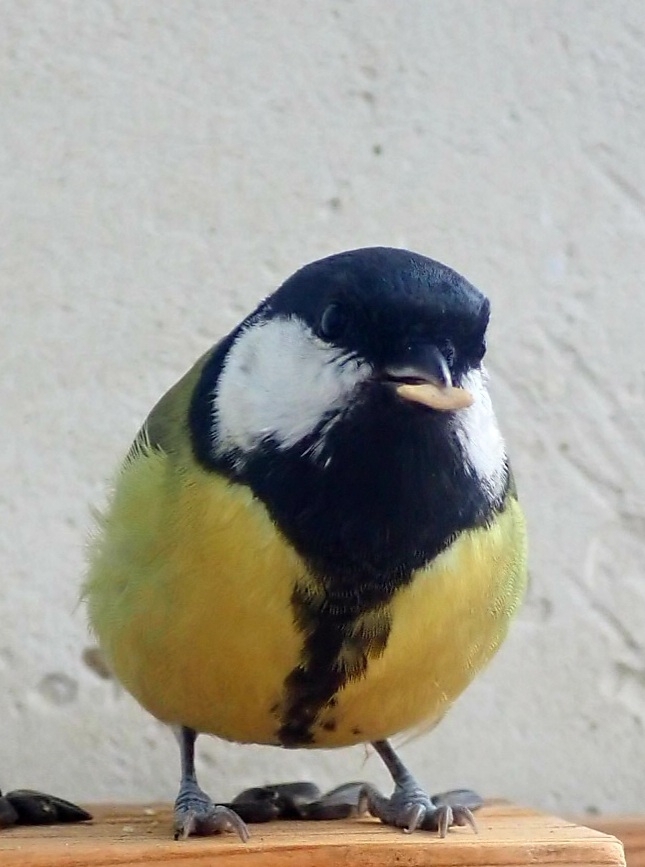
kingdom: Animalia
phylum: Chordata
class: Aves
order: Passeriformes
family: Paridae
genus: Parus
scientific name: Parus major
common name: Great tit
